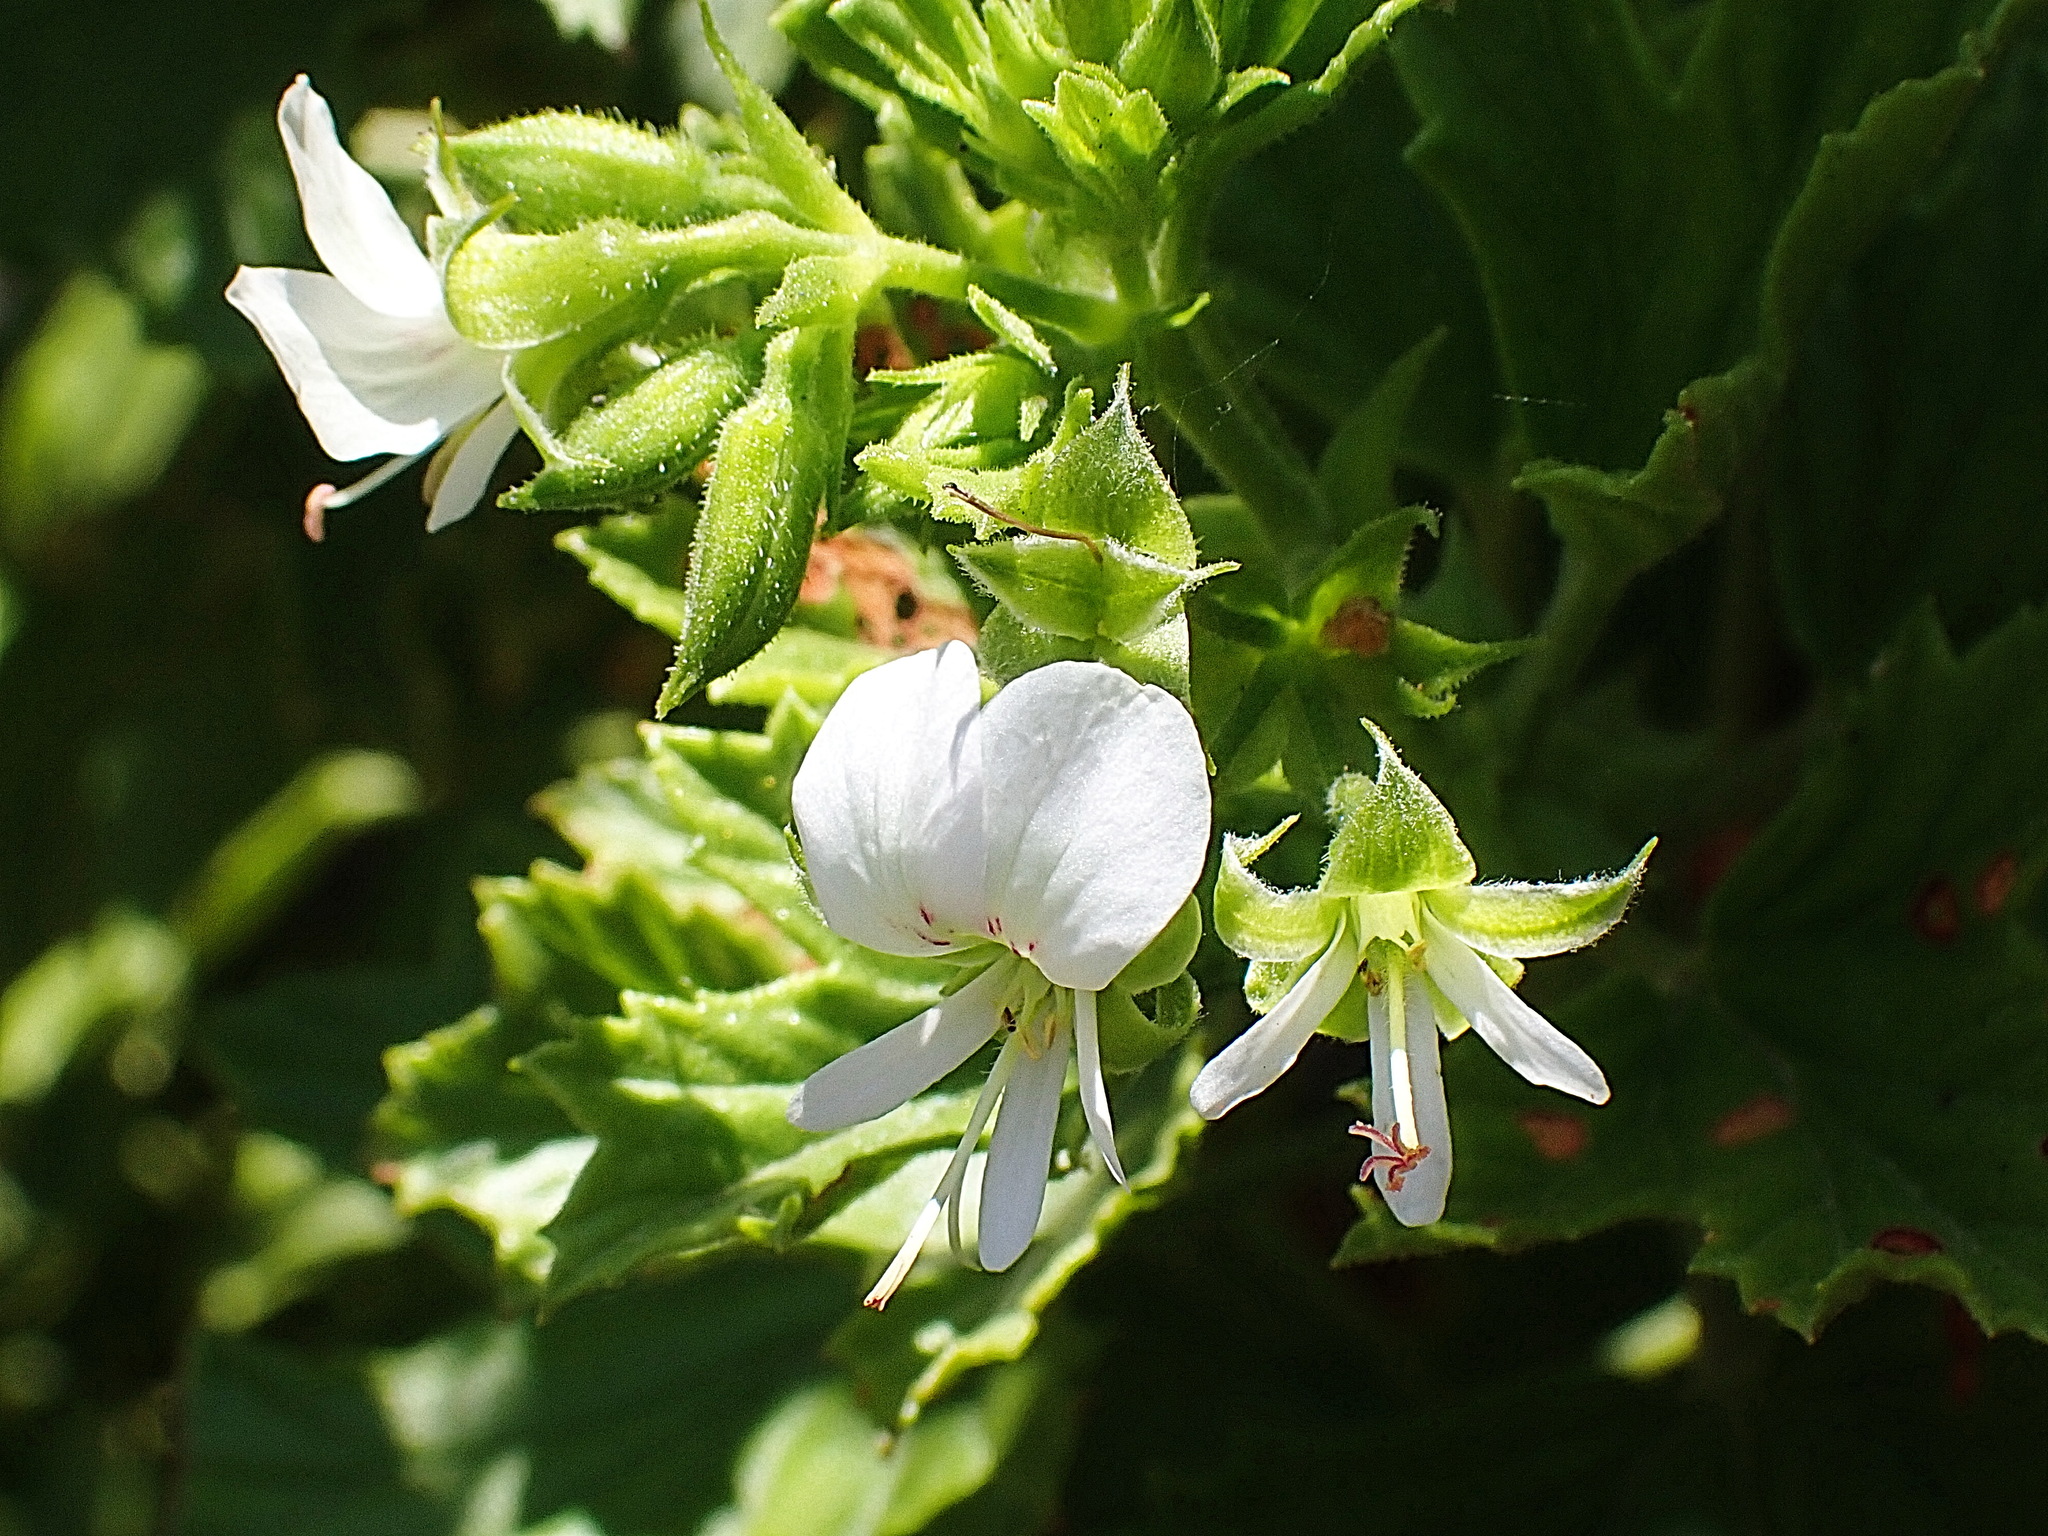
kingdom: Plantae
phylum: Tracheophyta
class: Magnoliopsida
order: Geraniales
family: Geraniaceae
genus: Pelargonium
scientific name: Pelargonium ribifolium
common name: Currant-leaf pelargonium
